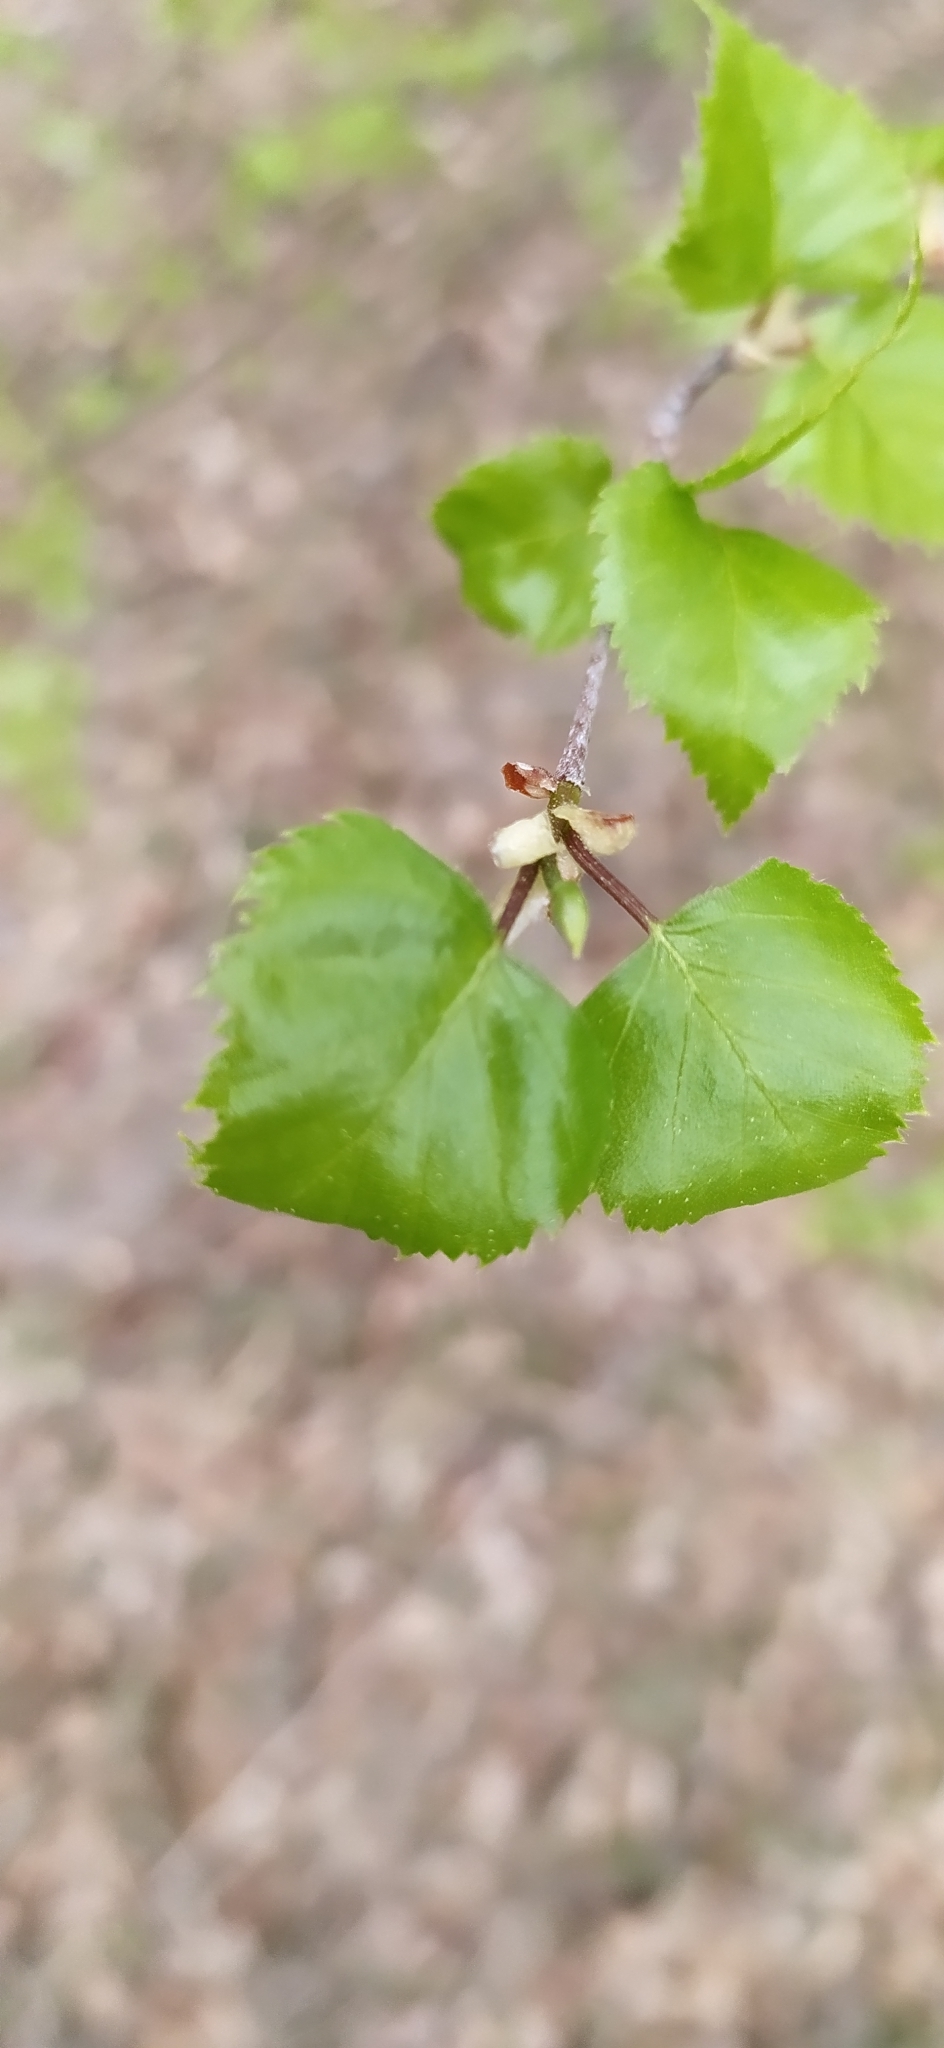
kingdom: Plantae
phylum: Tracheophyta
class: Magnoliopsida
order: Fagales
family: Betulaceae
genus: Betula
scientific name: Betula pendula
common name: Silver birch
